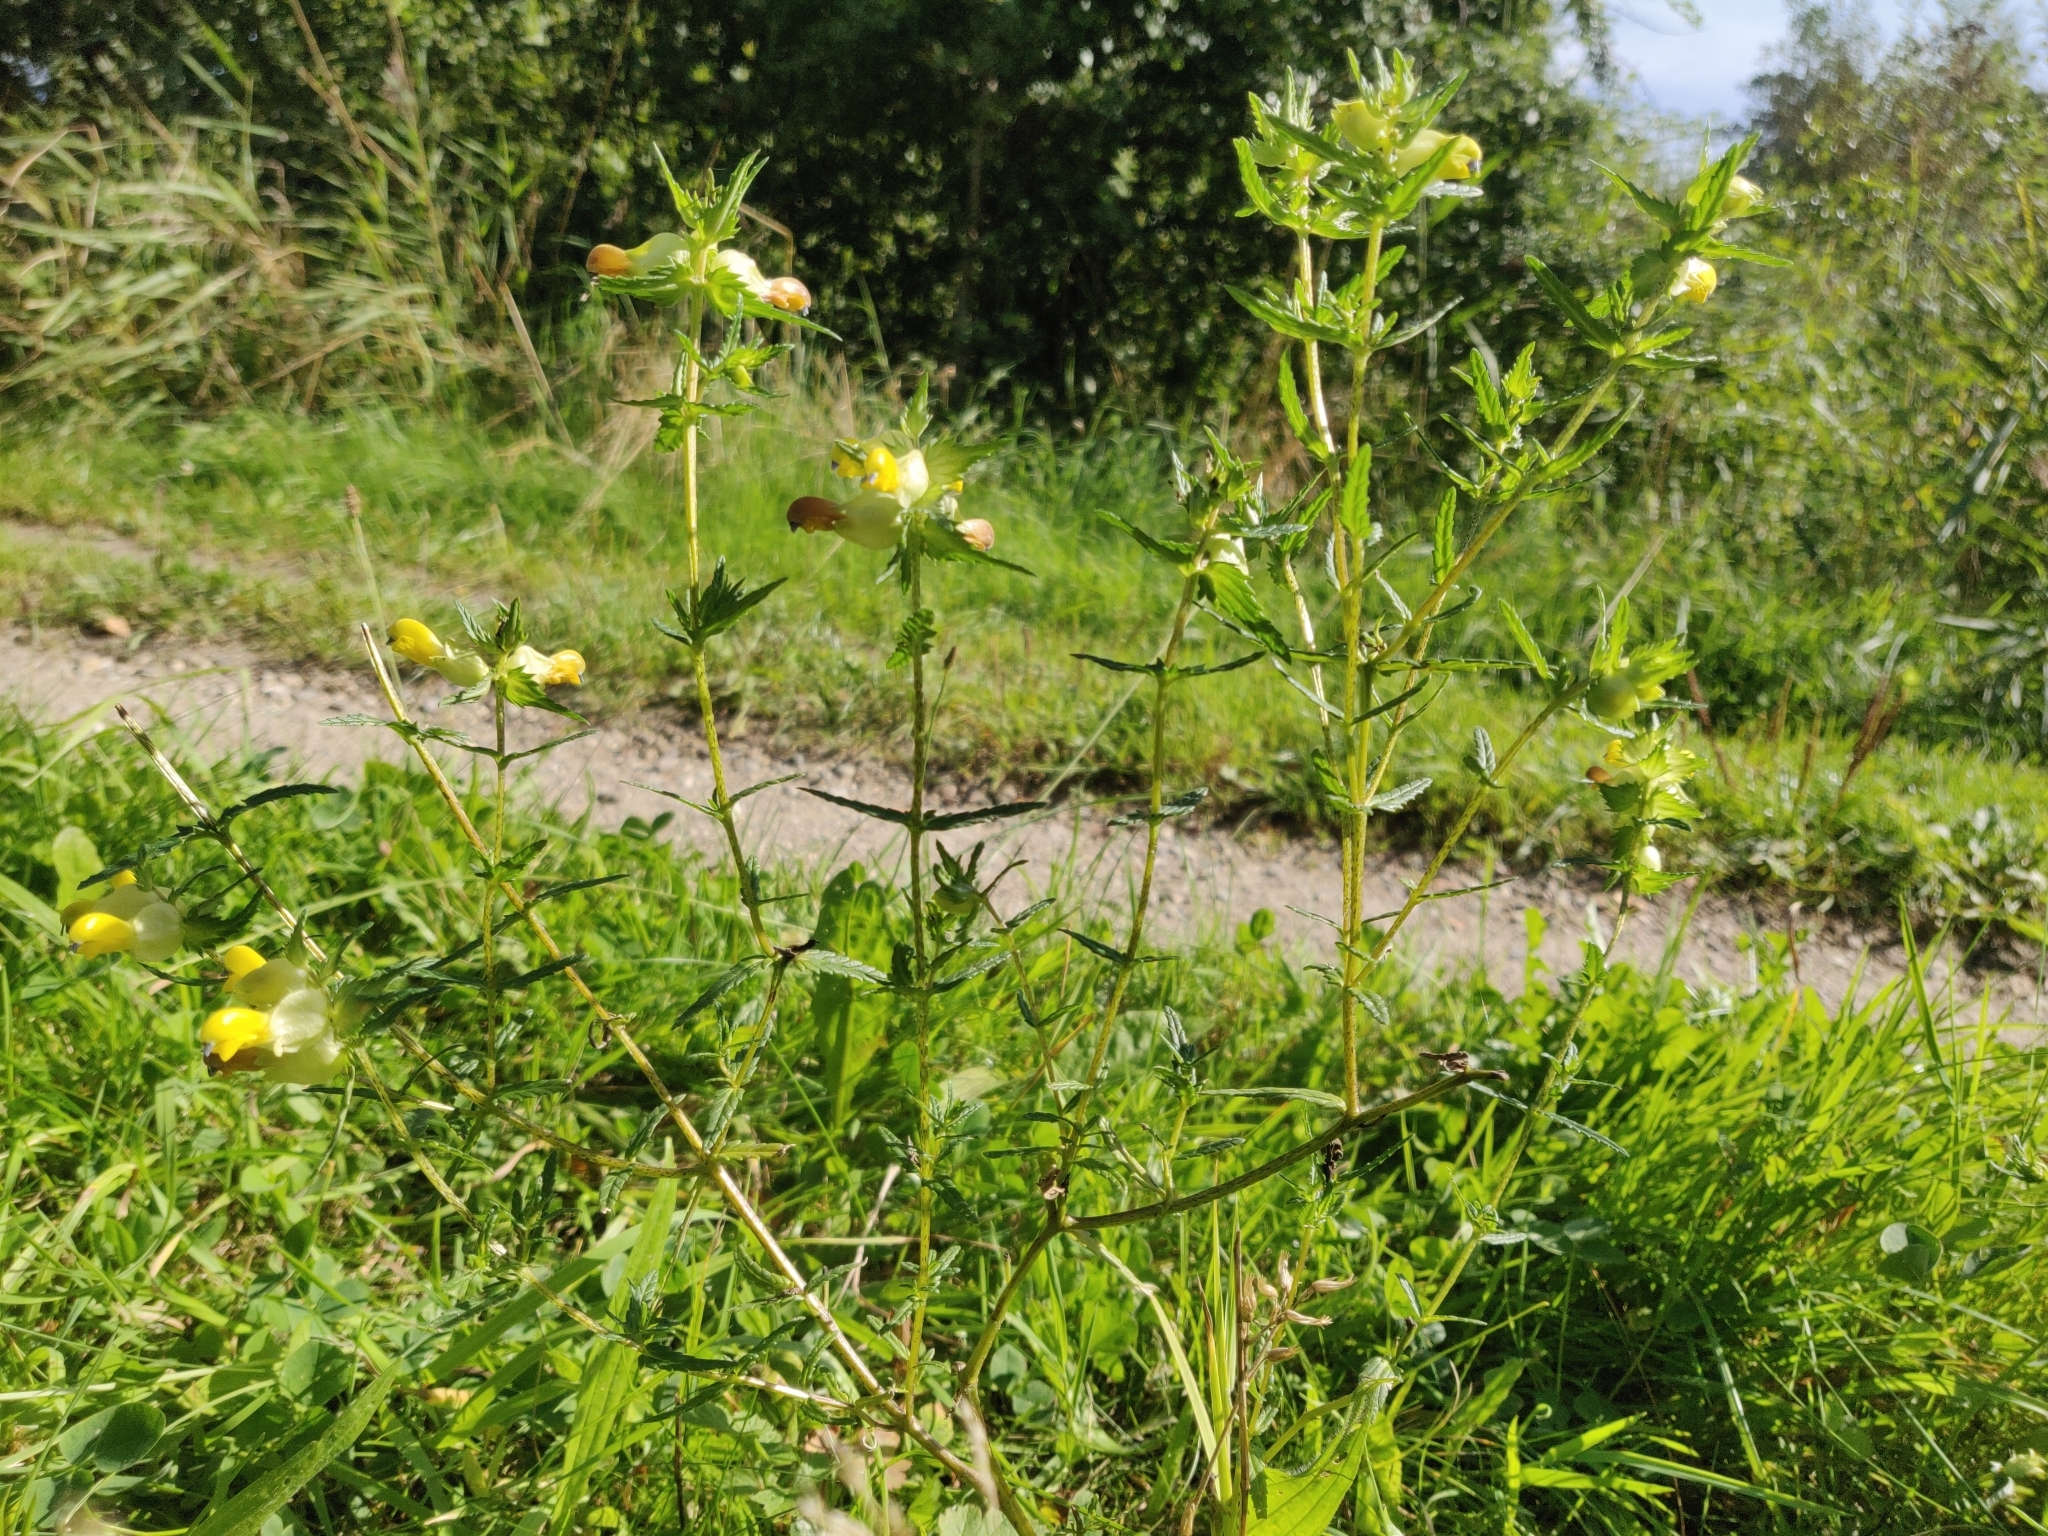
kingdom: Plantae
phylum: Tracheophyta
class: Magnoliopsida
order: Lamiales
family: Orobanchaceae
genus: Rhinanthus
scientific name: Rhinanthus serotinus
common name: Late-flowering yellow rattle
